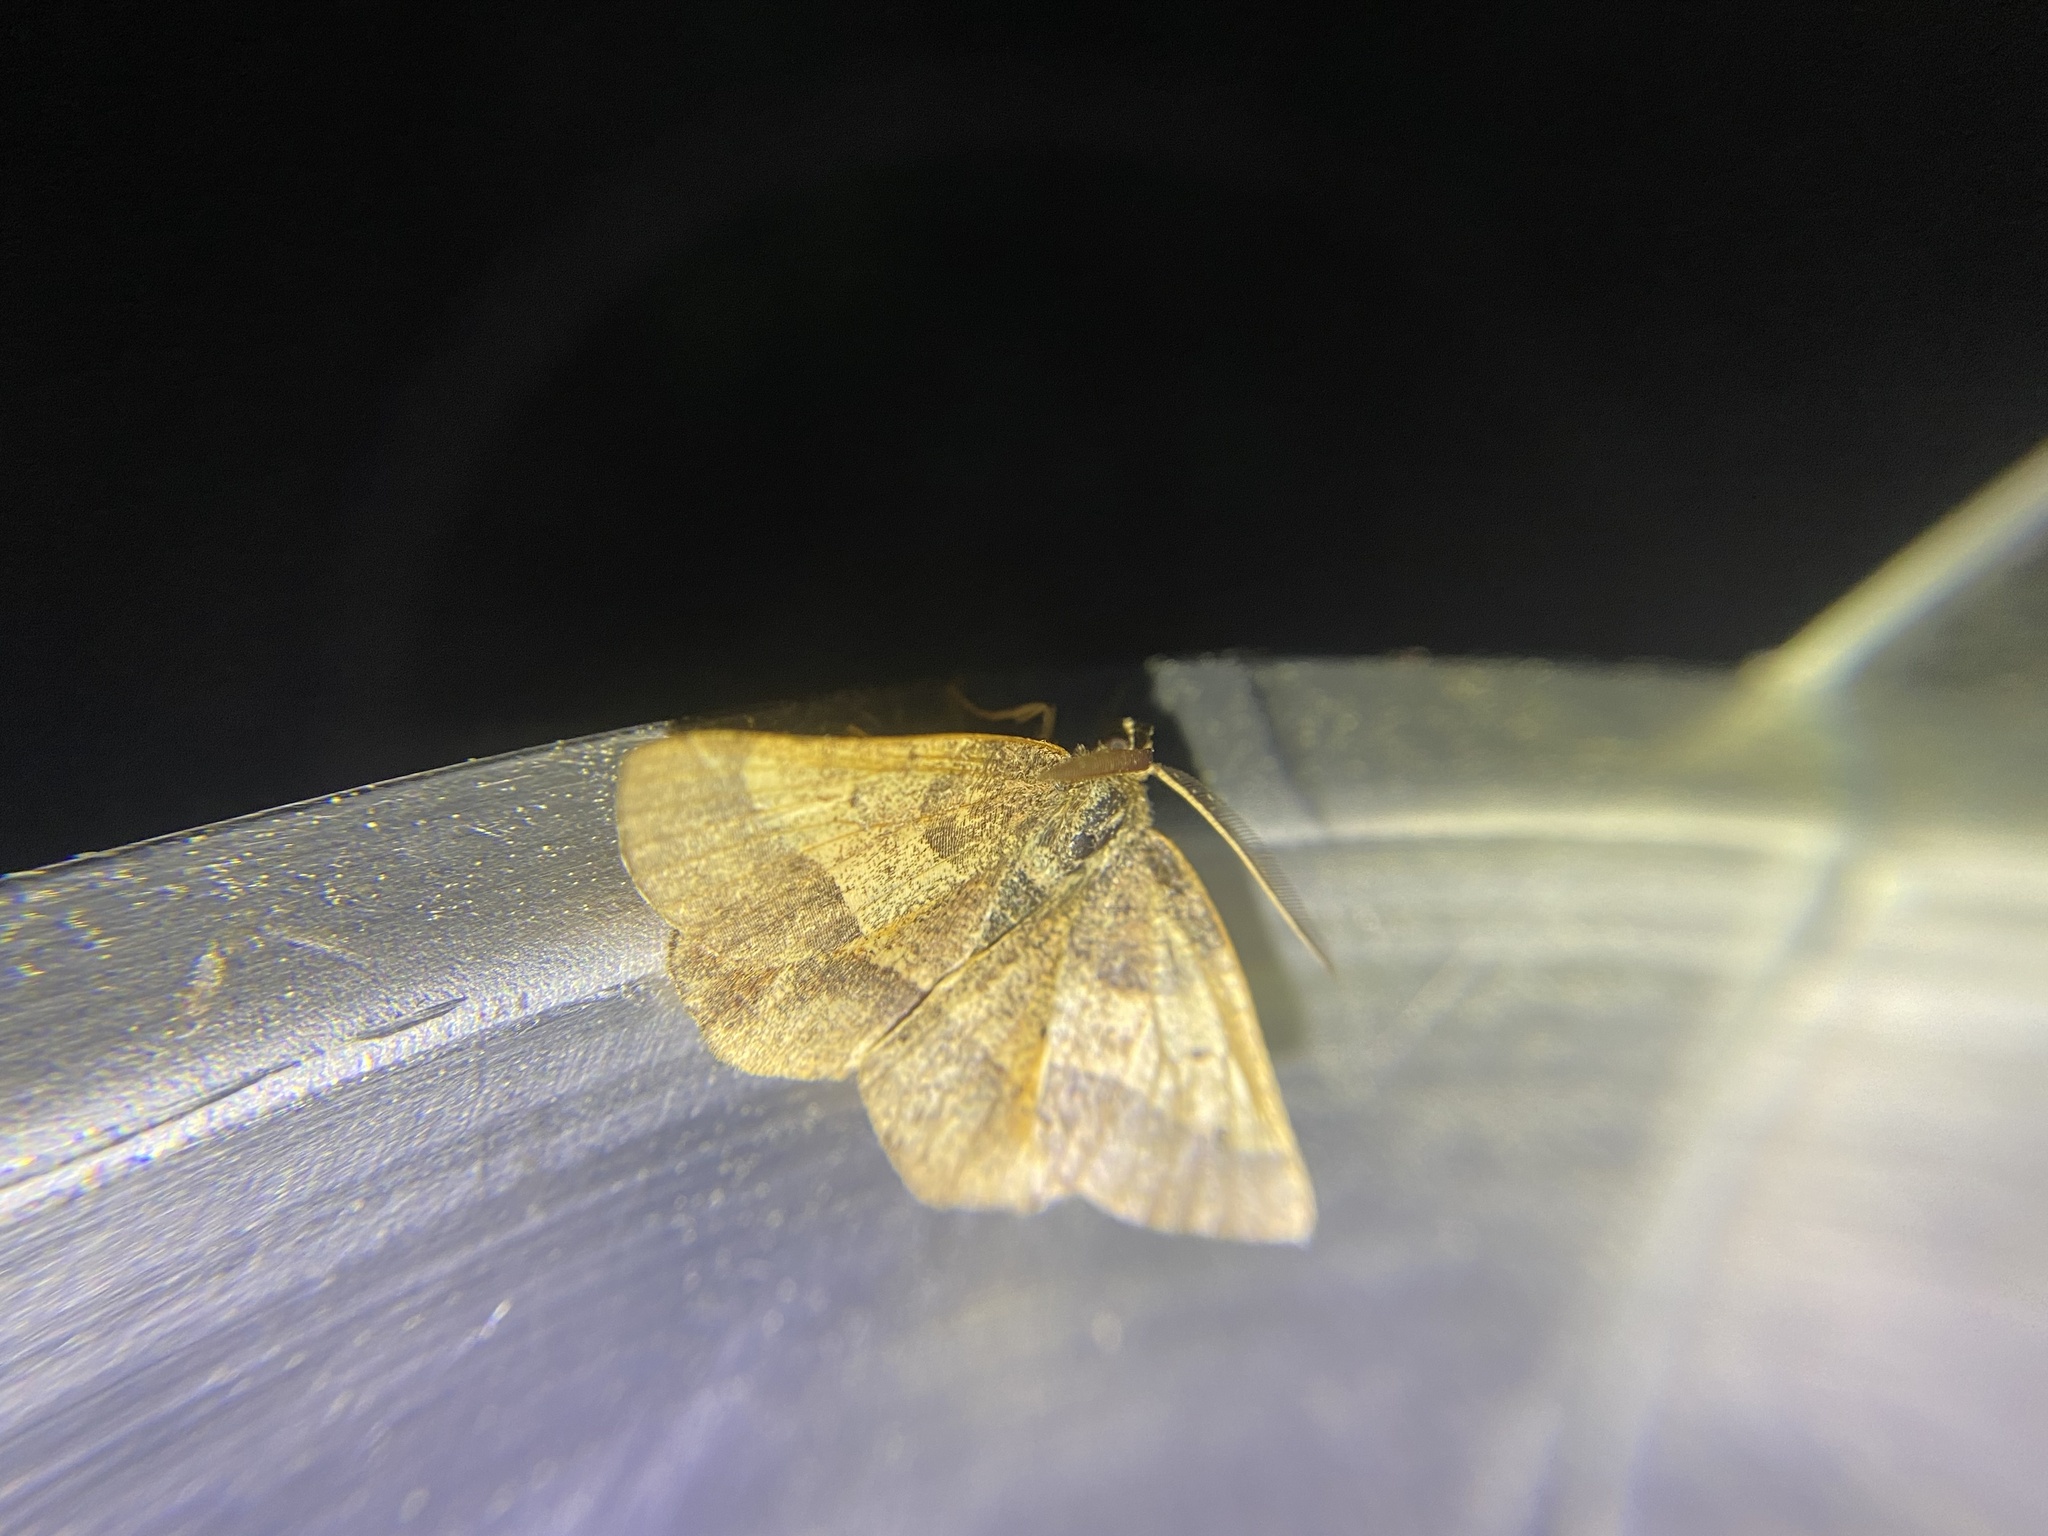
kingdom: Animalia
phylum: Arthropoda
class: Insecta
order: Lepidoptera
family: Geometridae
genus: Metarranthis
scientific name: Metarranthis obfirmaria
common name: Yellow-washed metarranthis
